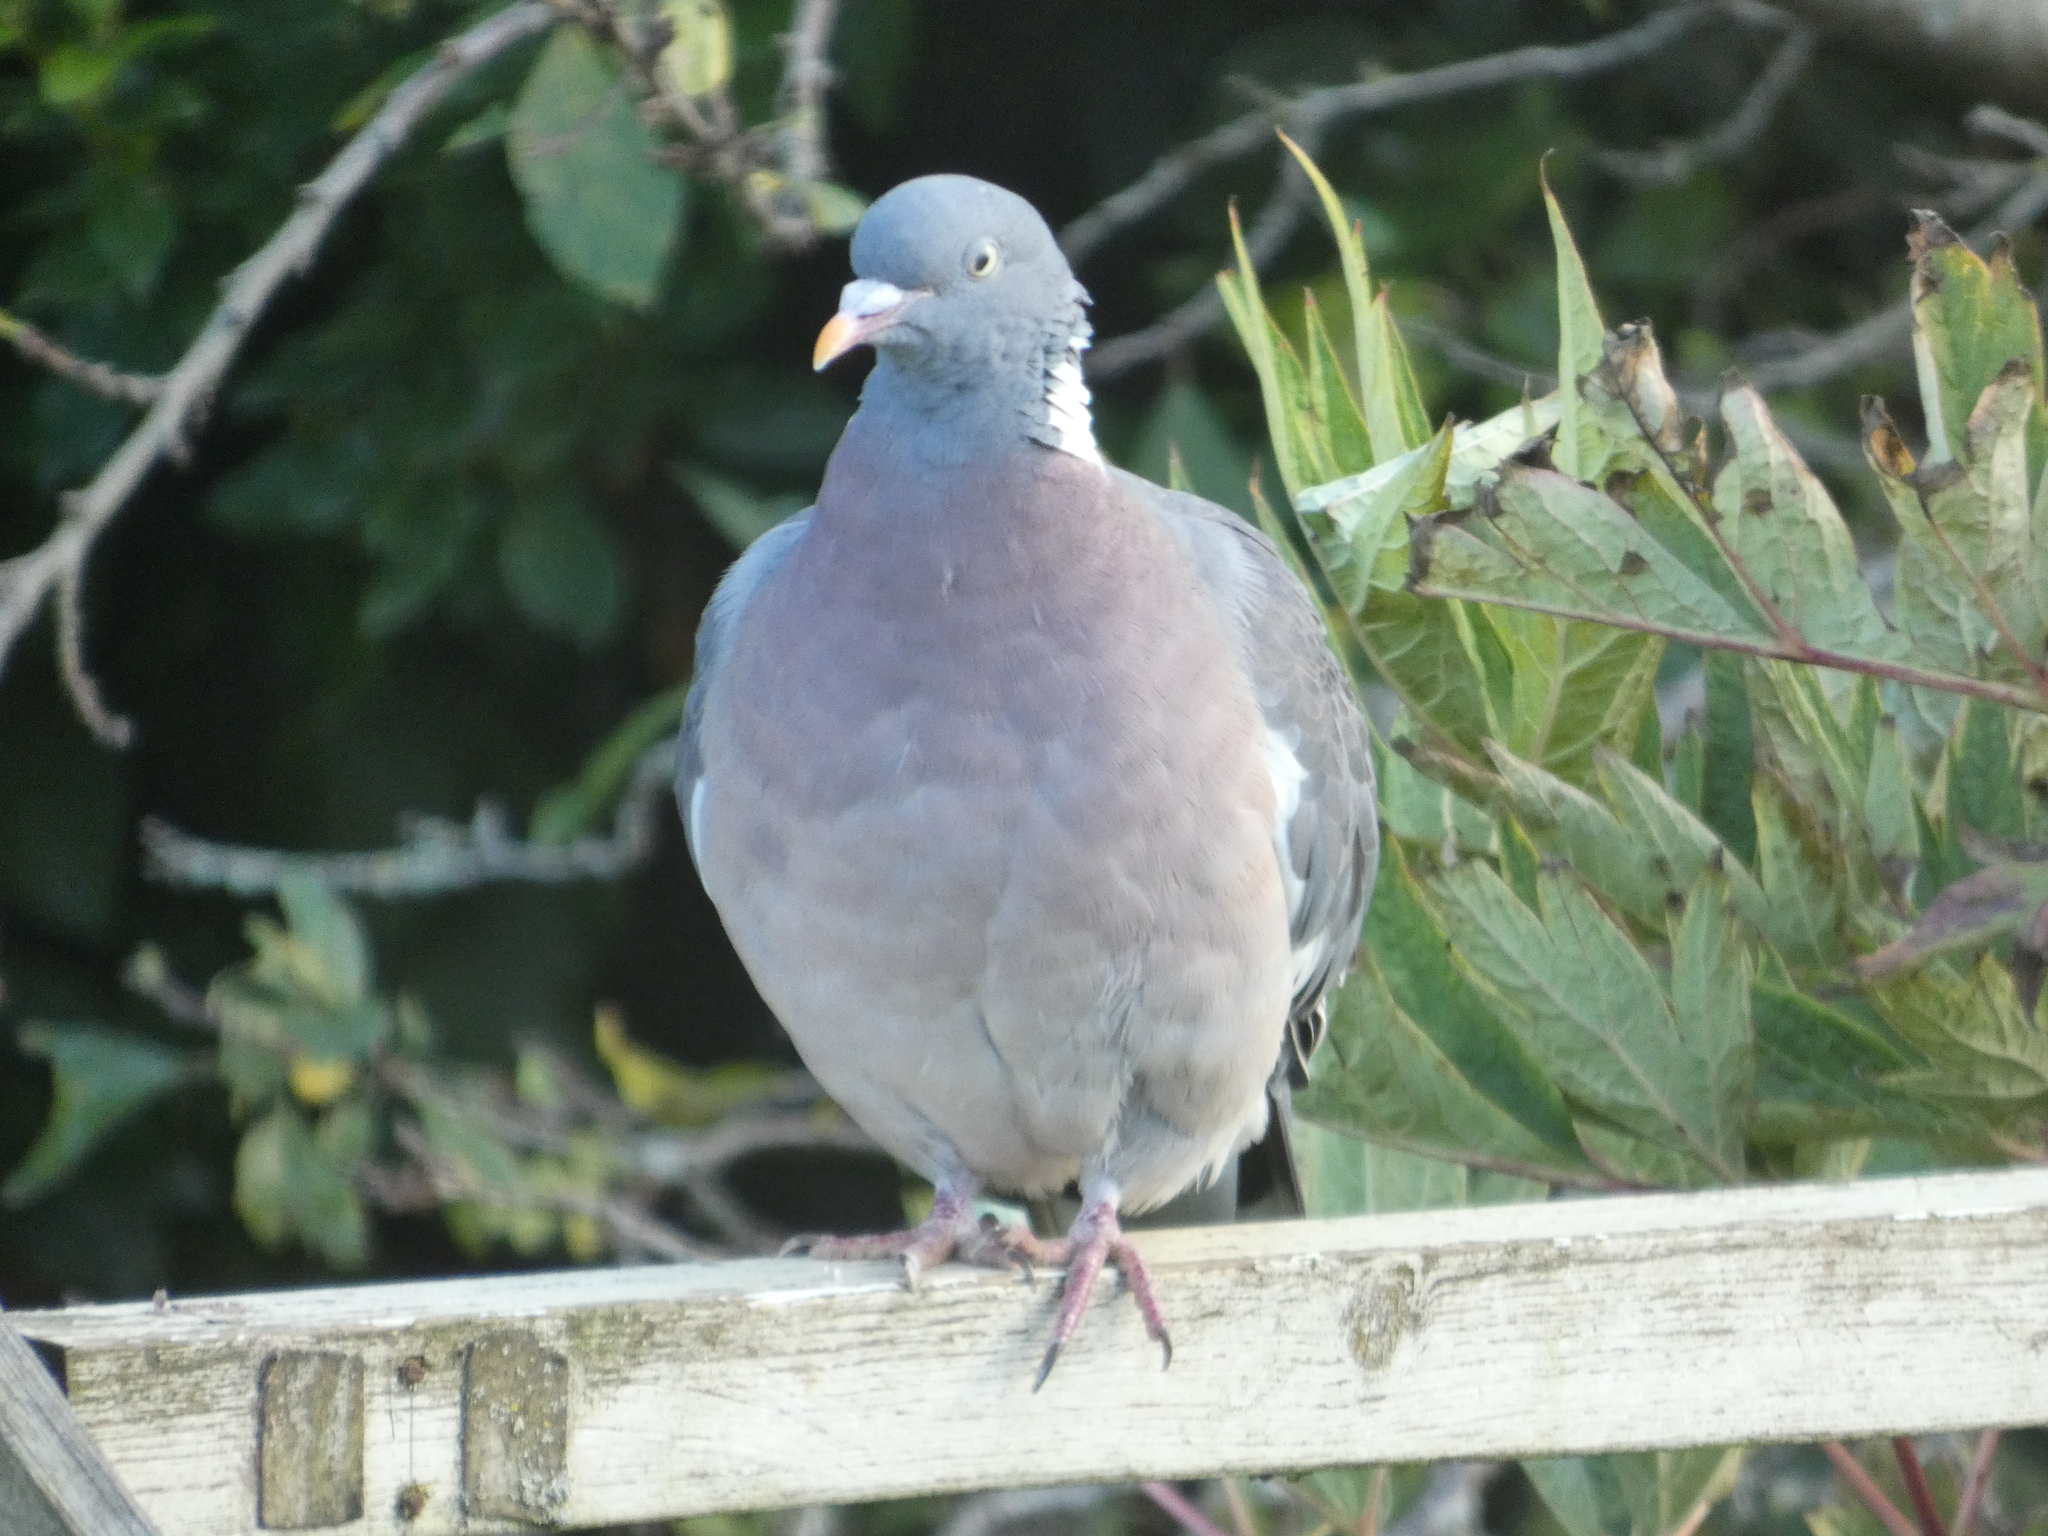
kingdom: Animalia
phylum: Chordata
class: Aves
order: Columbiformes
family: Columbidae
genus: Columba
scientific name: Columba palumbus
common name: Common wood pigeon
